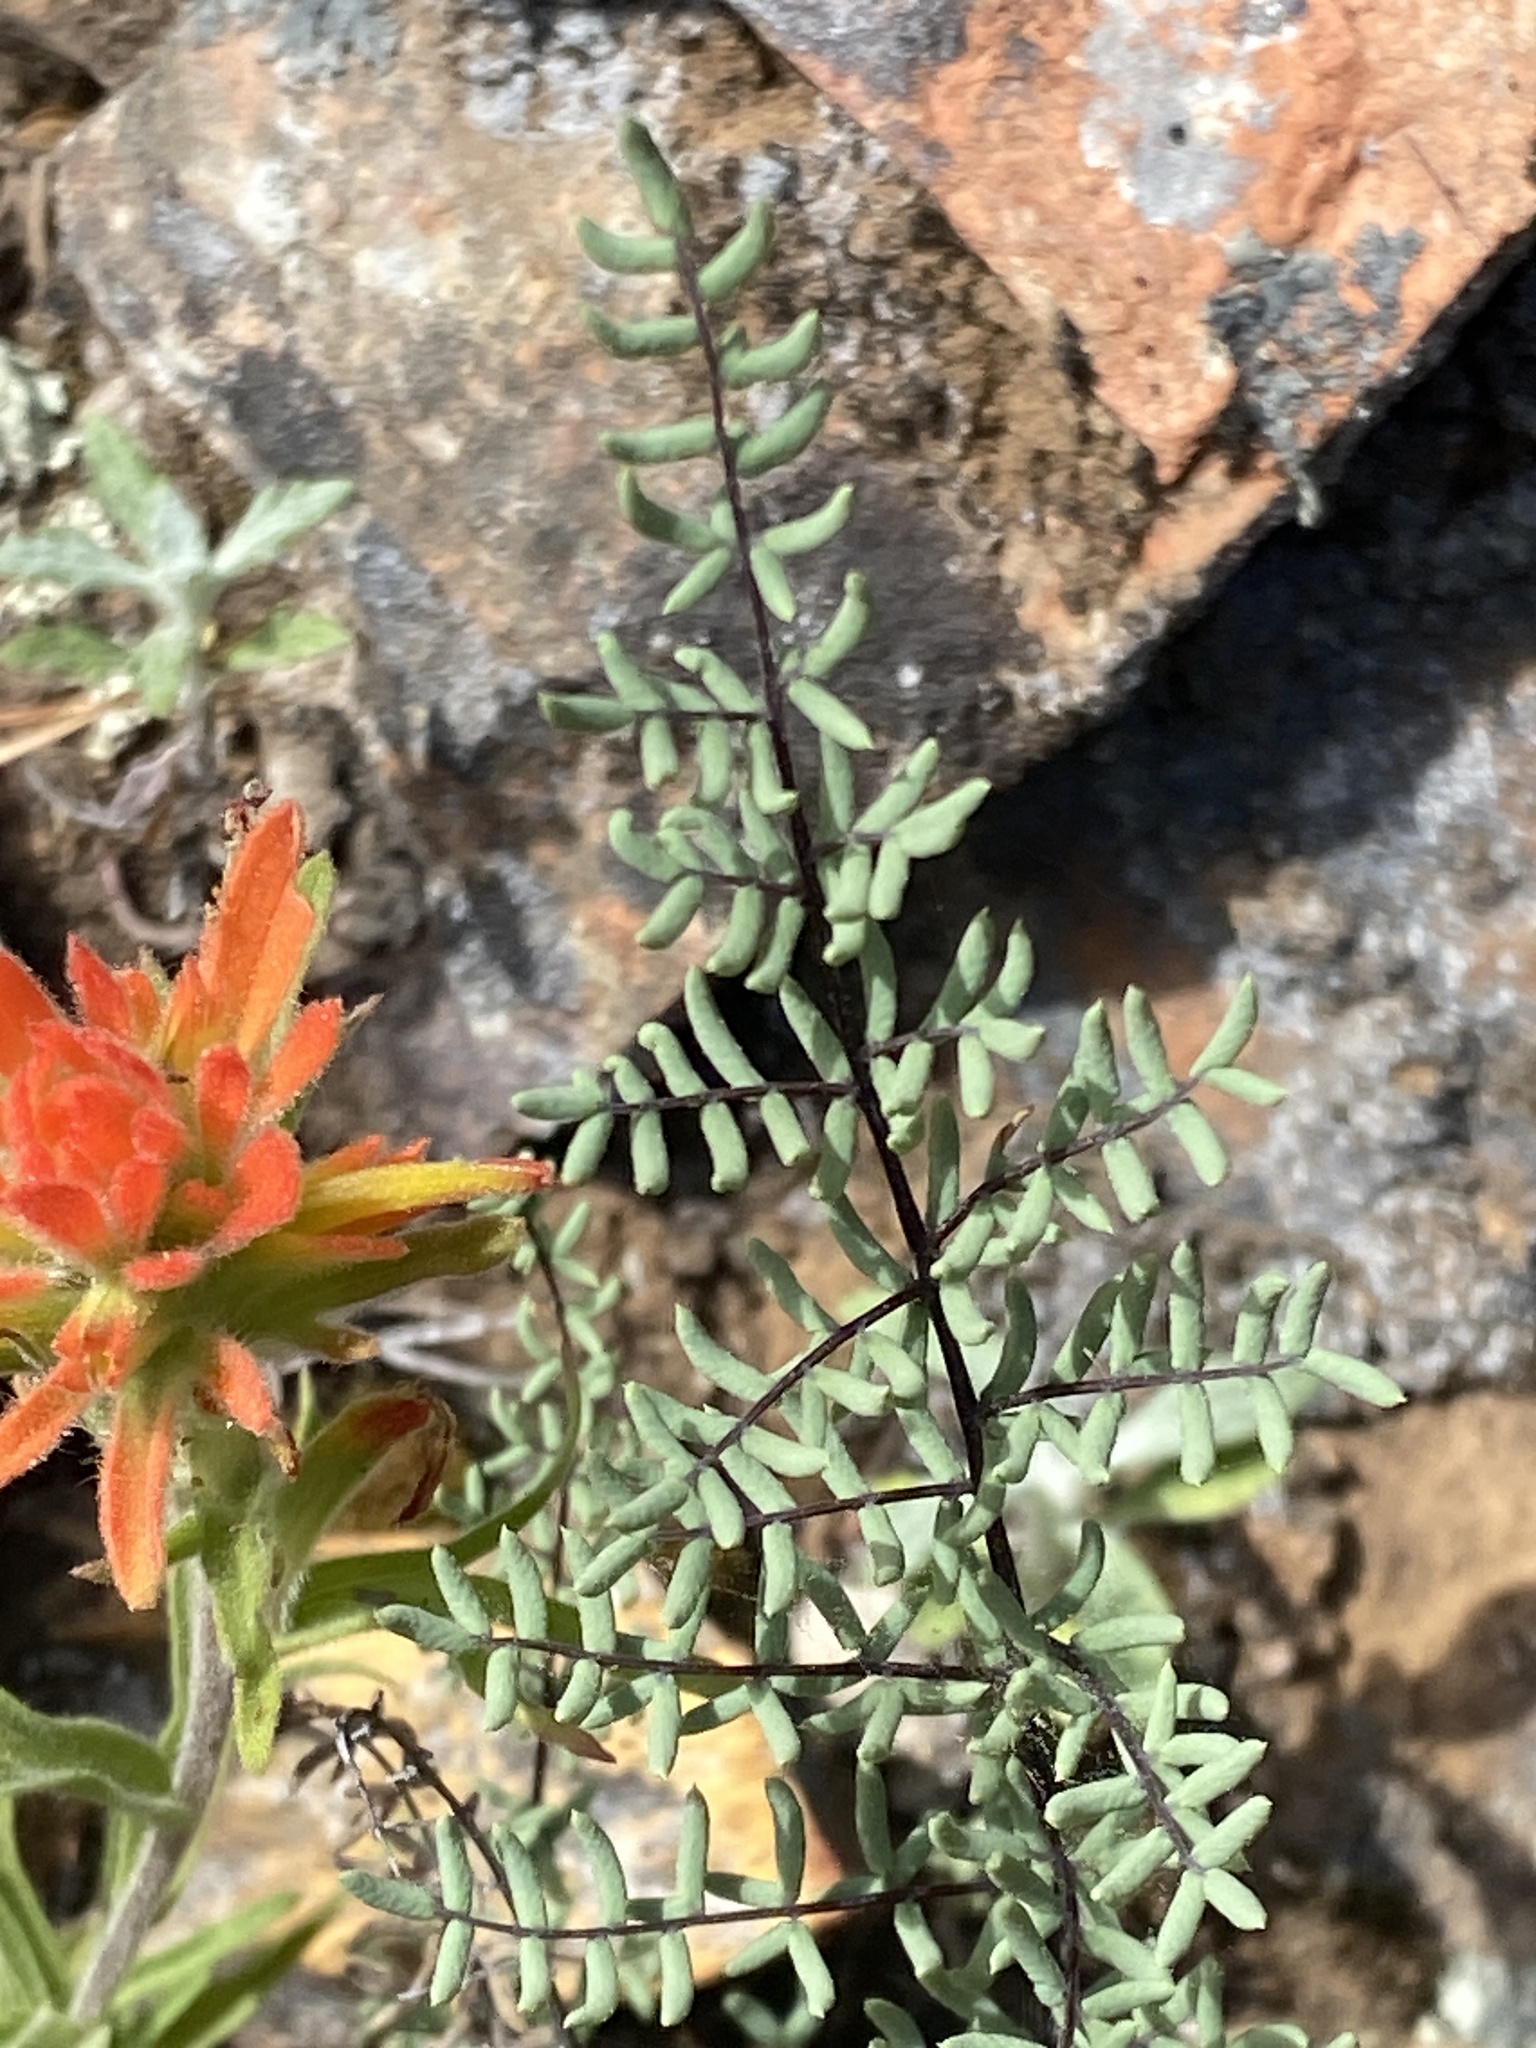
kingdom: Plantae
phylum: Tracheophyta
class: Polypodiopsida
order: Polypodiales
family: Pteridaceae
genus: Pellaea
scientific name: Pellaea mucronata
